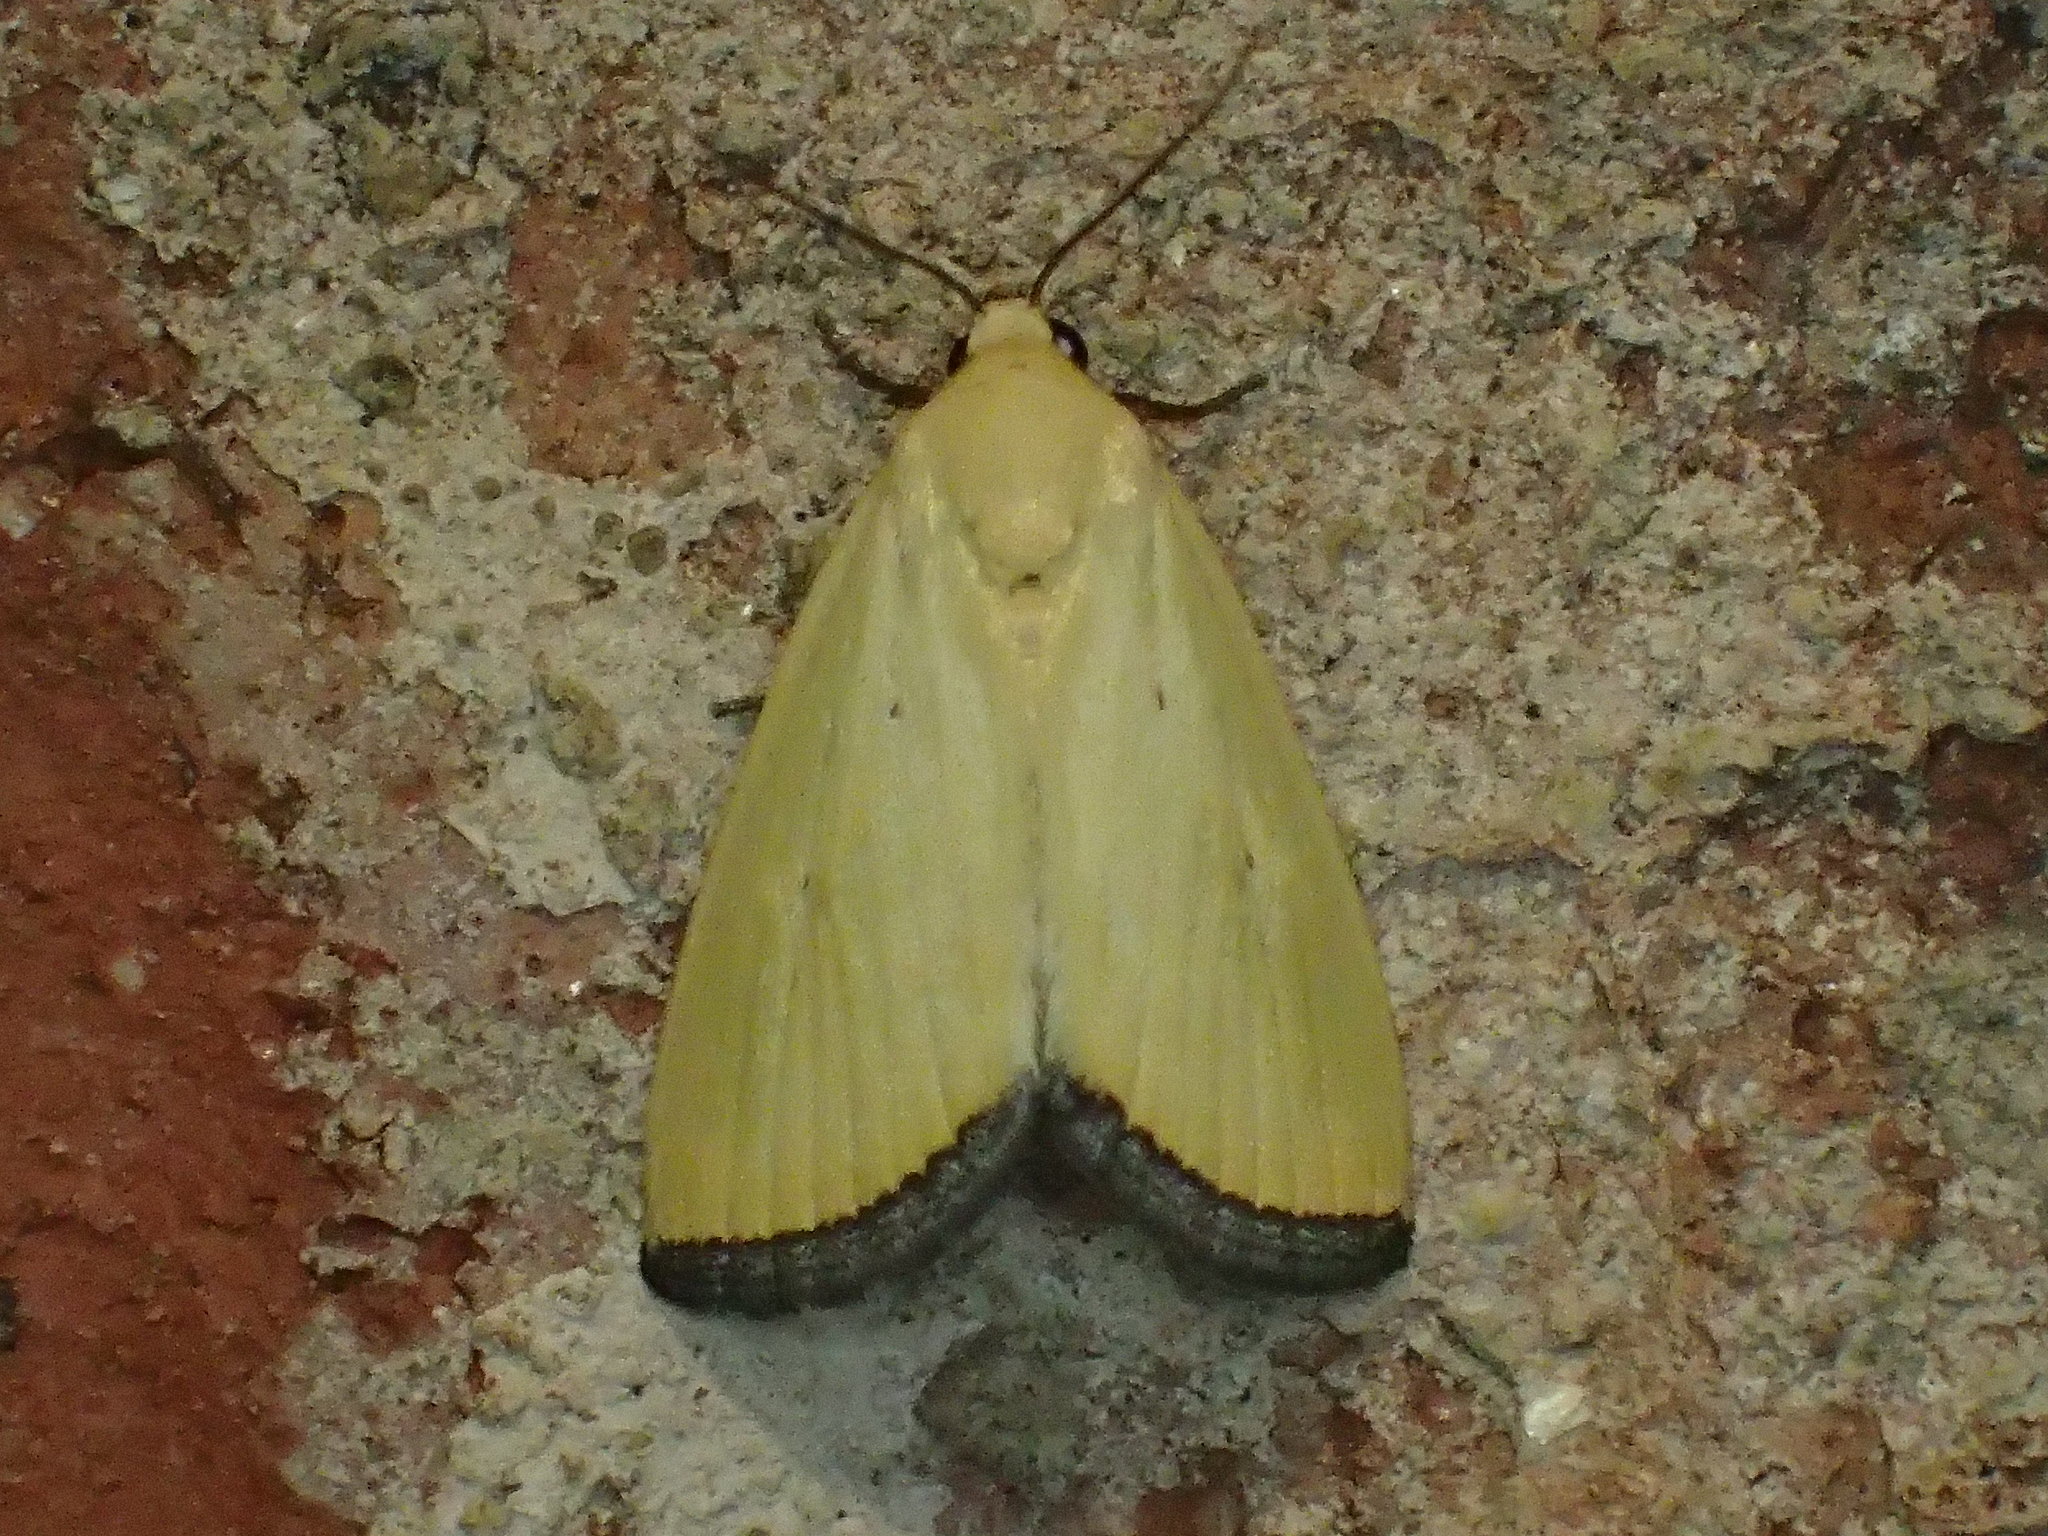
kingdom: Animalia
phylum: Arthropoda
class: Insecta
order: Lepidoptera
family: Noctuidae
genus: Marimatha
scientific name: Marimatha nigrofimbria
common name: Black-bordered lemon moth
